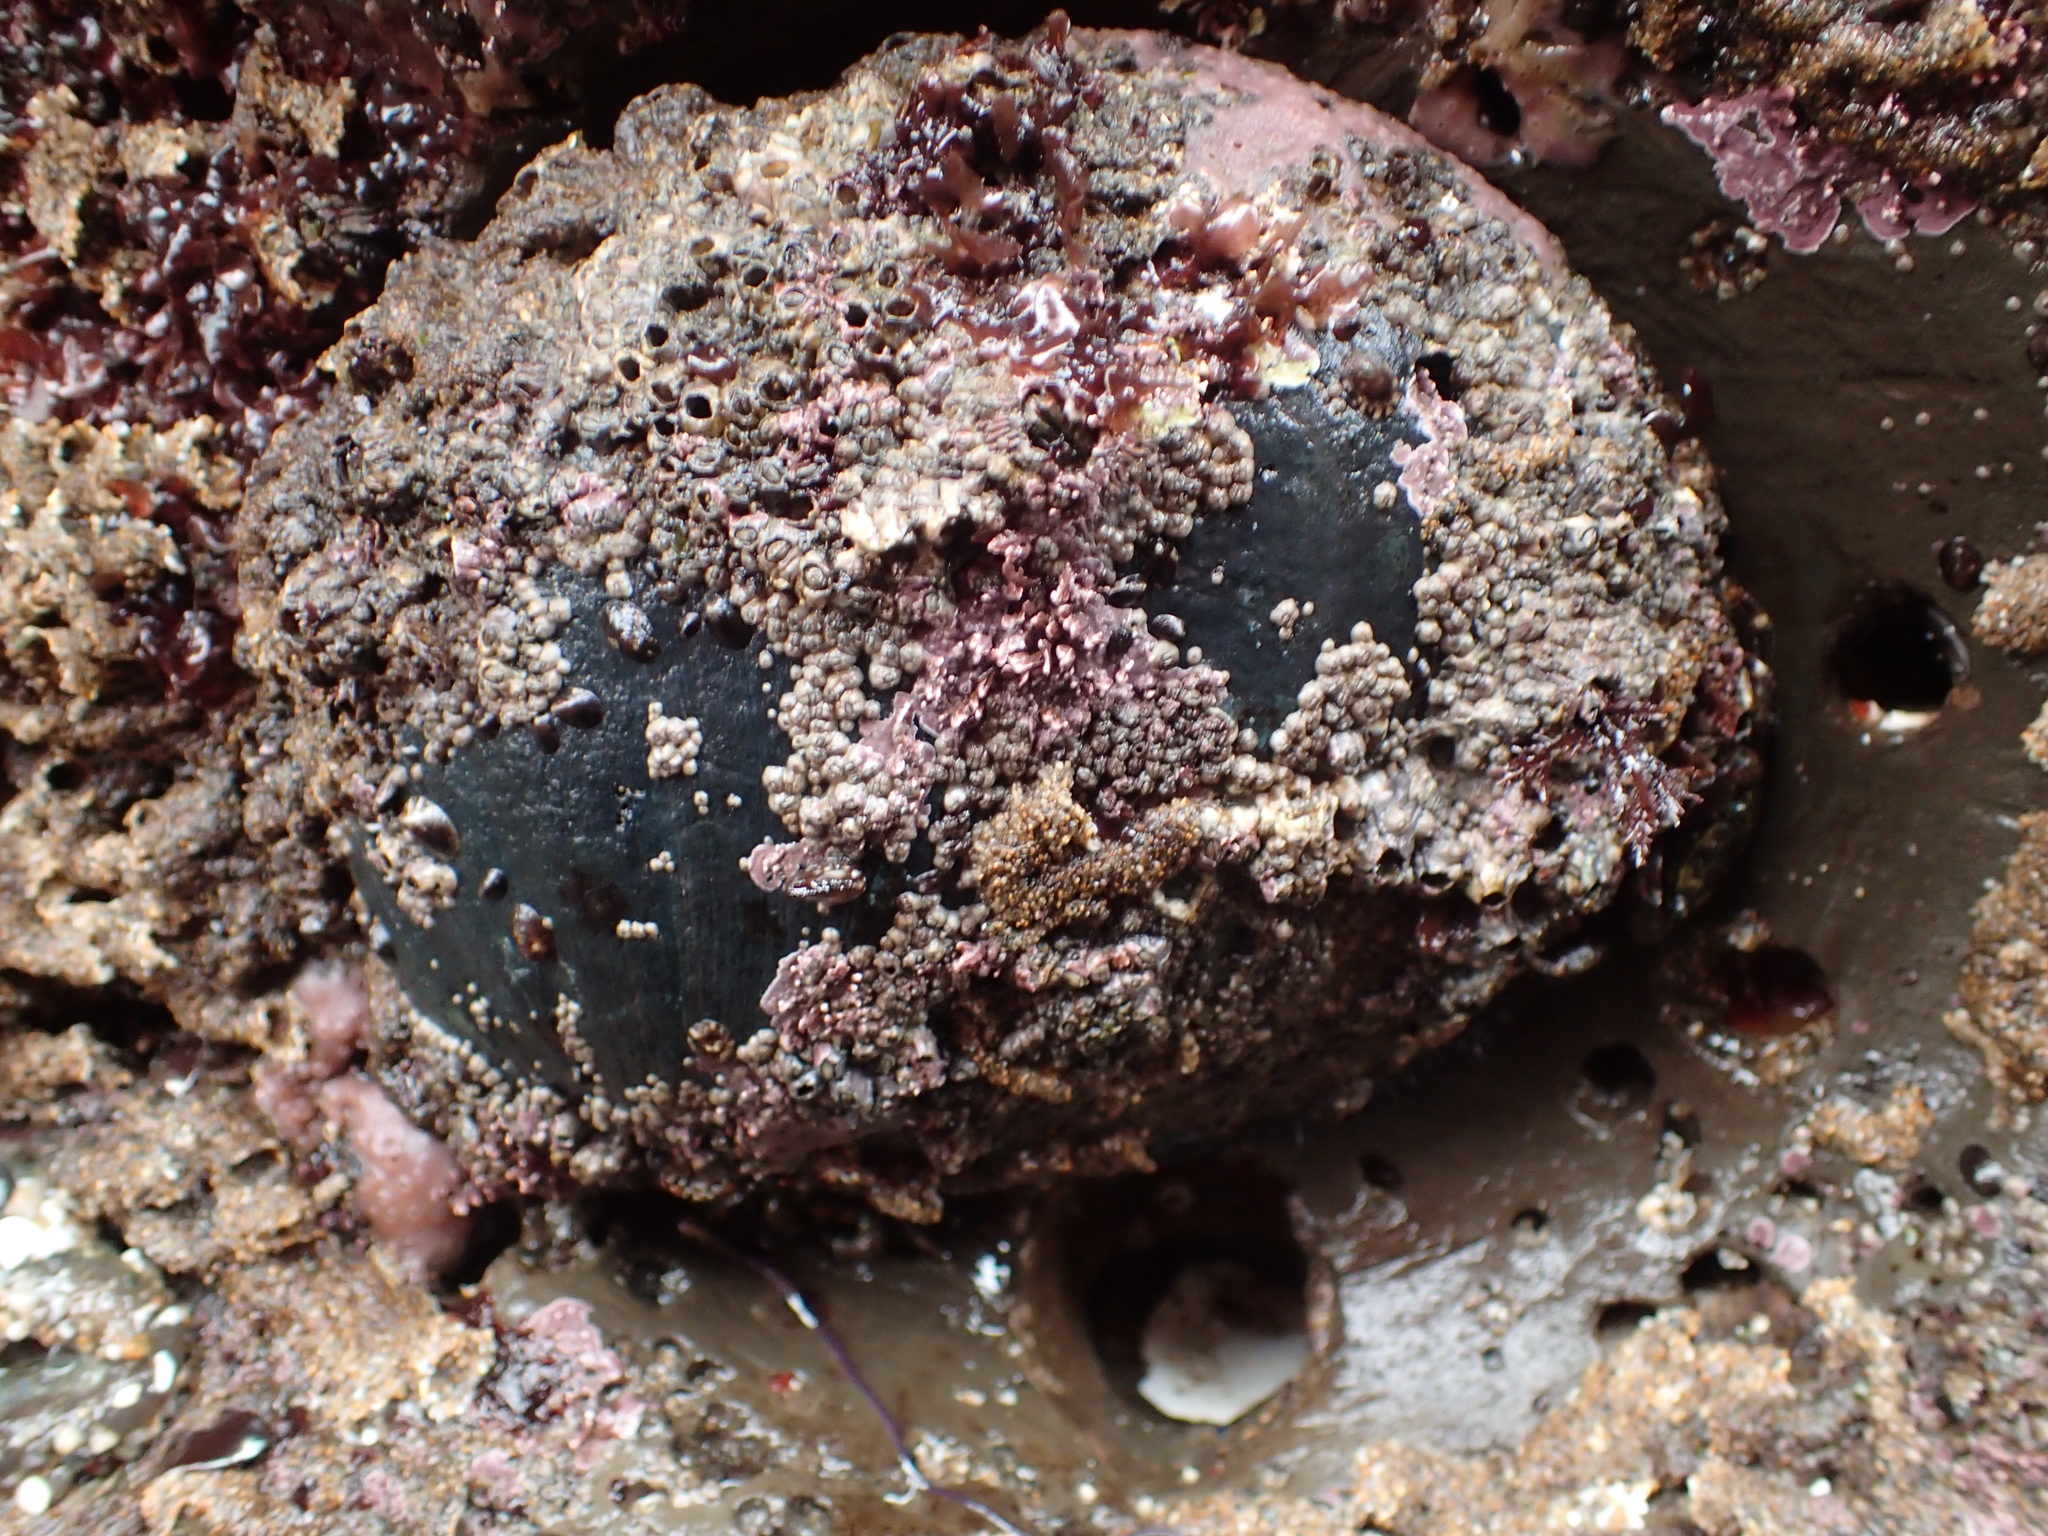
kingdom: Animalia
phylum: Mollusca
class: Gastropoda
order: Lepetellida
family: Haliotidae
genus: Haliotis
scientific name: Haliotis cracherodii
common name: Black abalone
